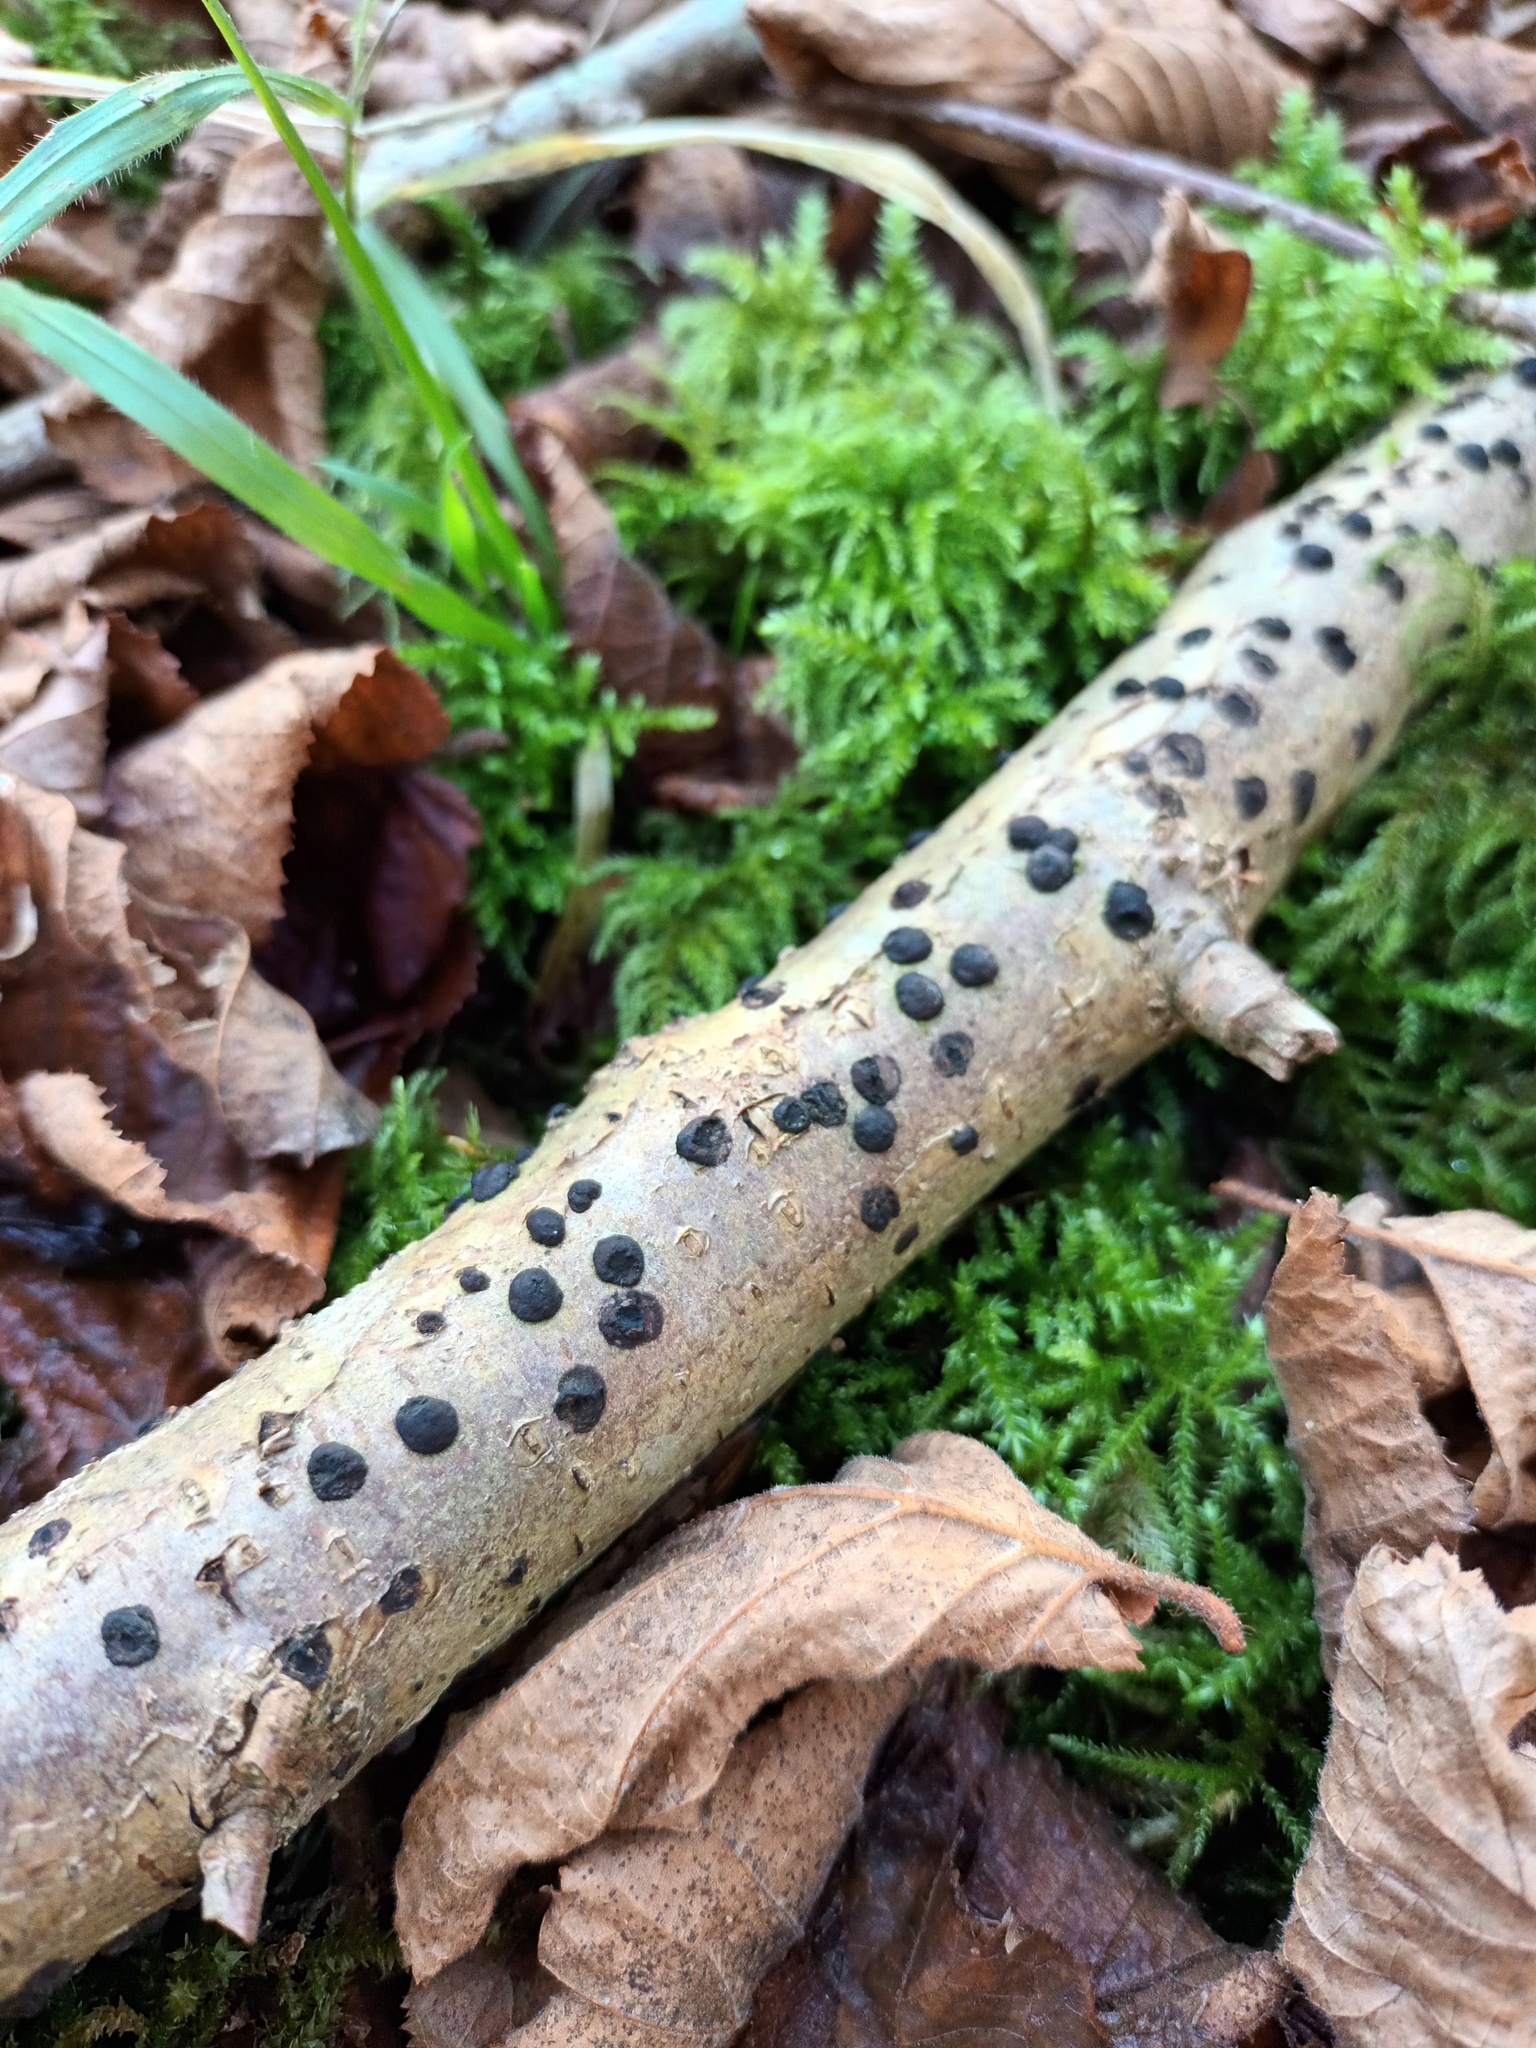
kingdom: Fungi
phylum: Ascomycota
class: Sordariomycetes
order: Xylariales
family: Hypoxylaceae
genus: Hypoxylon
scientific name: Hypoxylon fuscum
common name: Hazel woodwart
